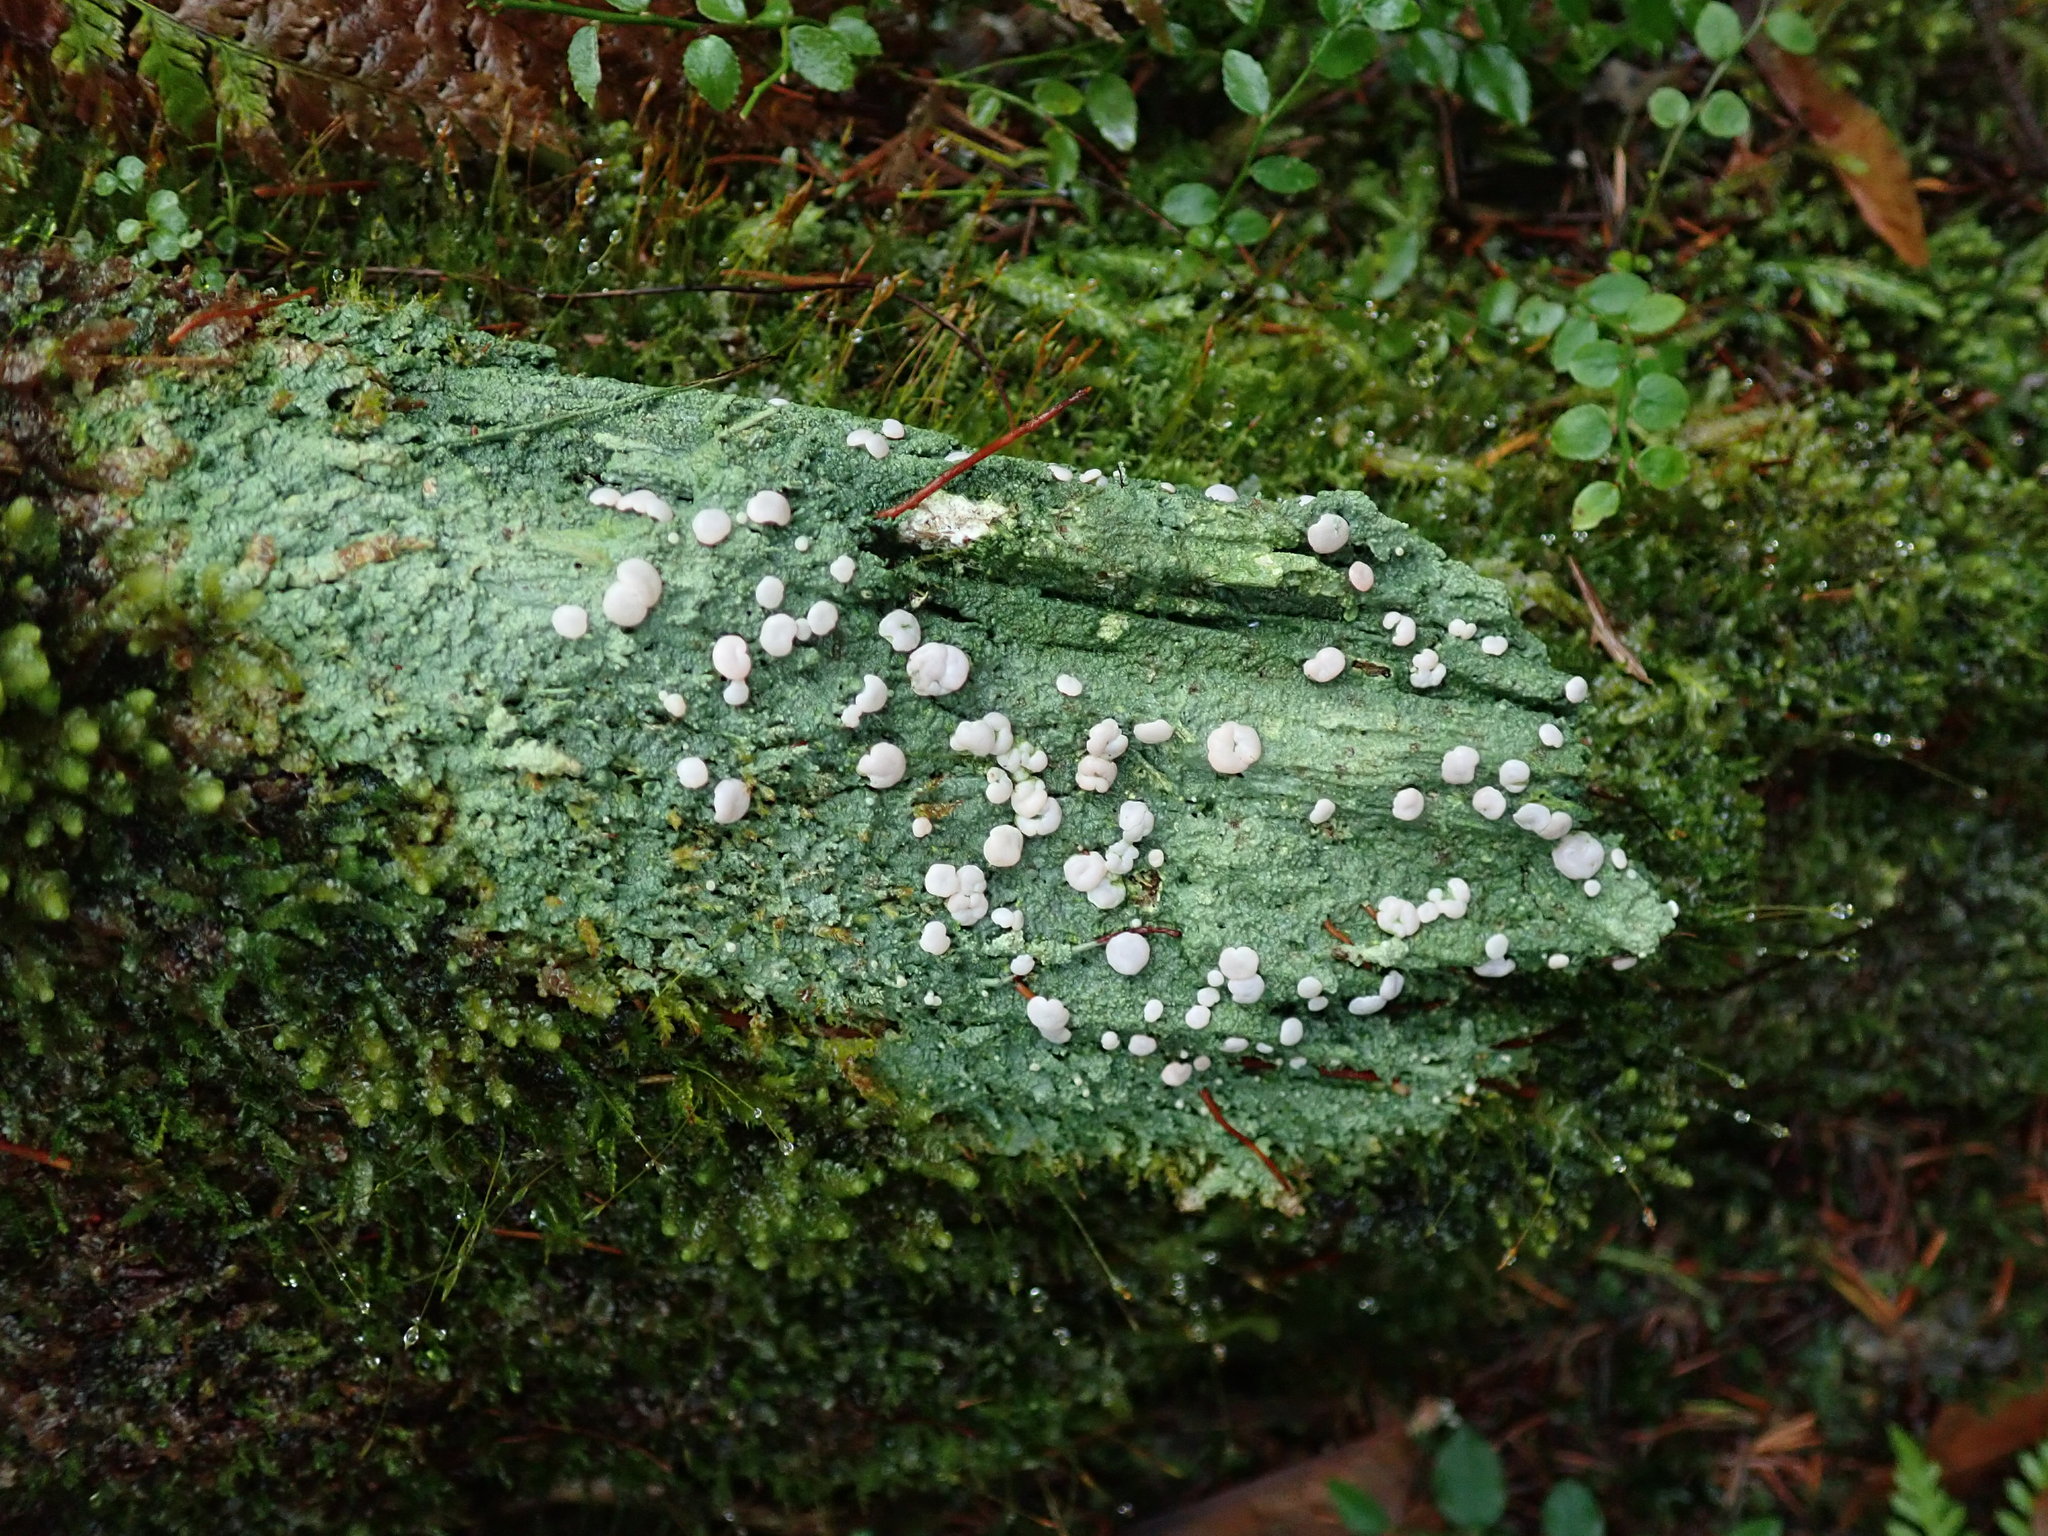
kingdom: Fungi
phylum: Ascomycota
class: Lecanoromycetes
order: Pertusariales
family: Icmadophilaceae
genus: Icmadophila
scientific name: Icmadophila ericetorum
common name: Candy lichen
